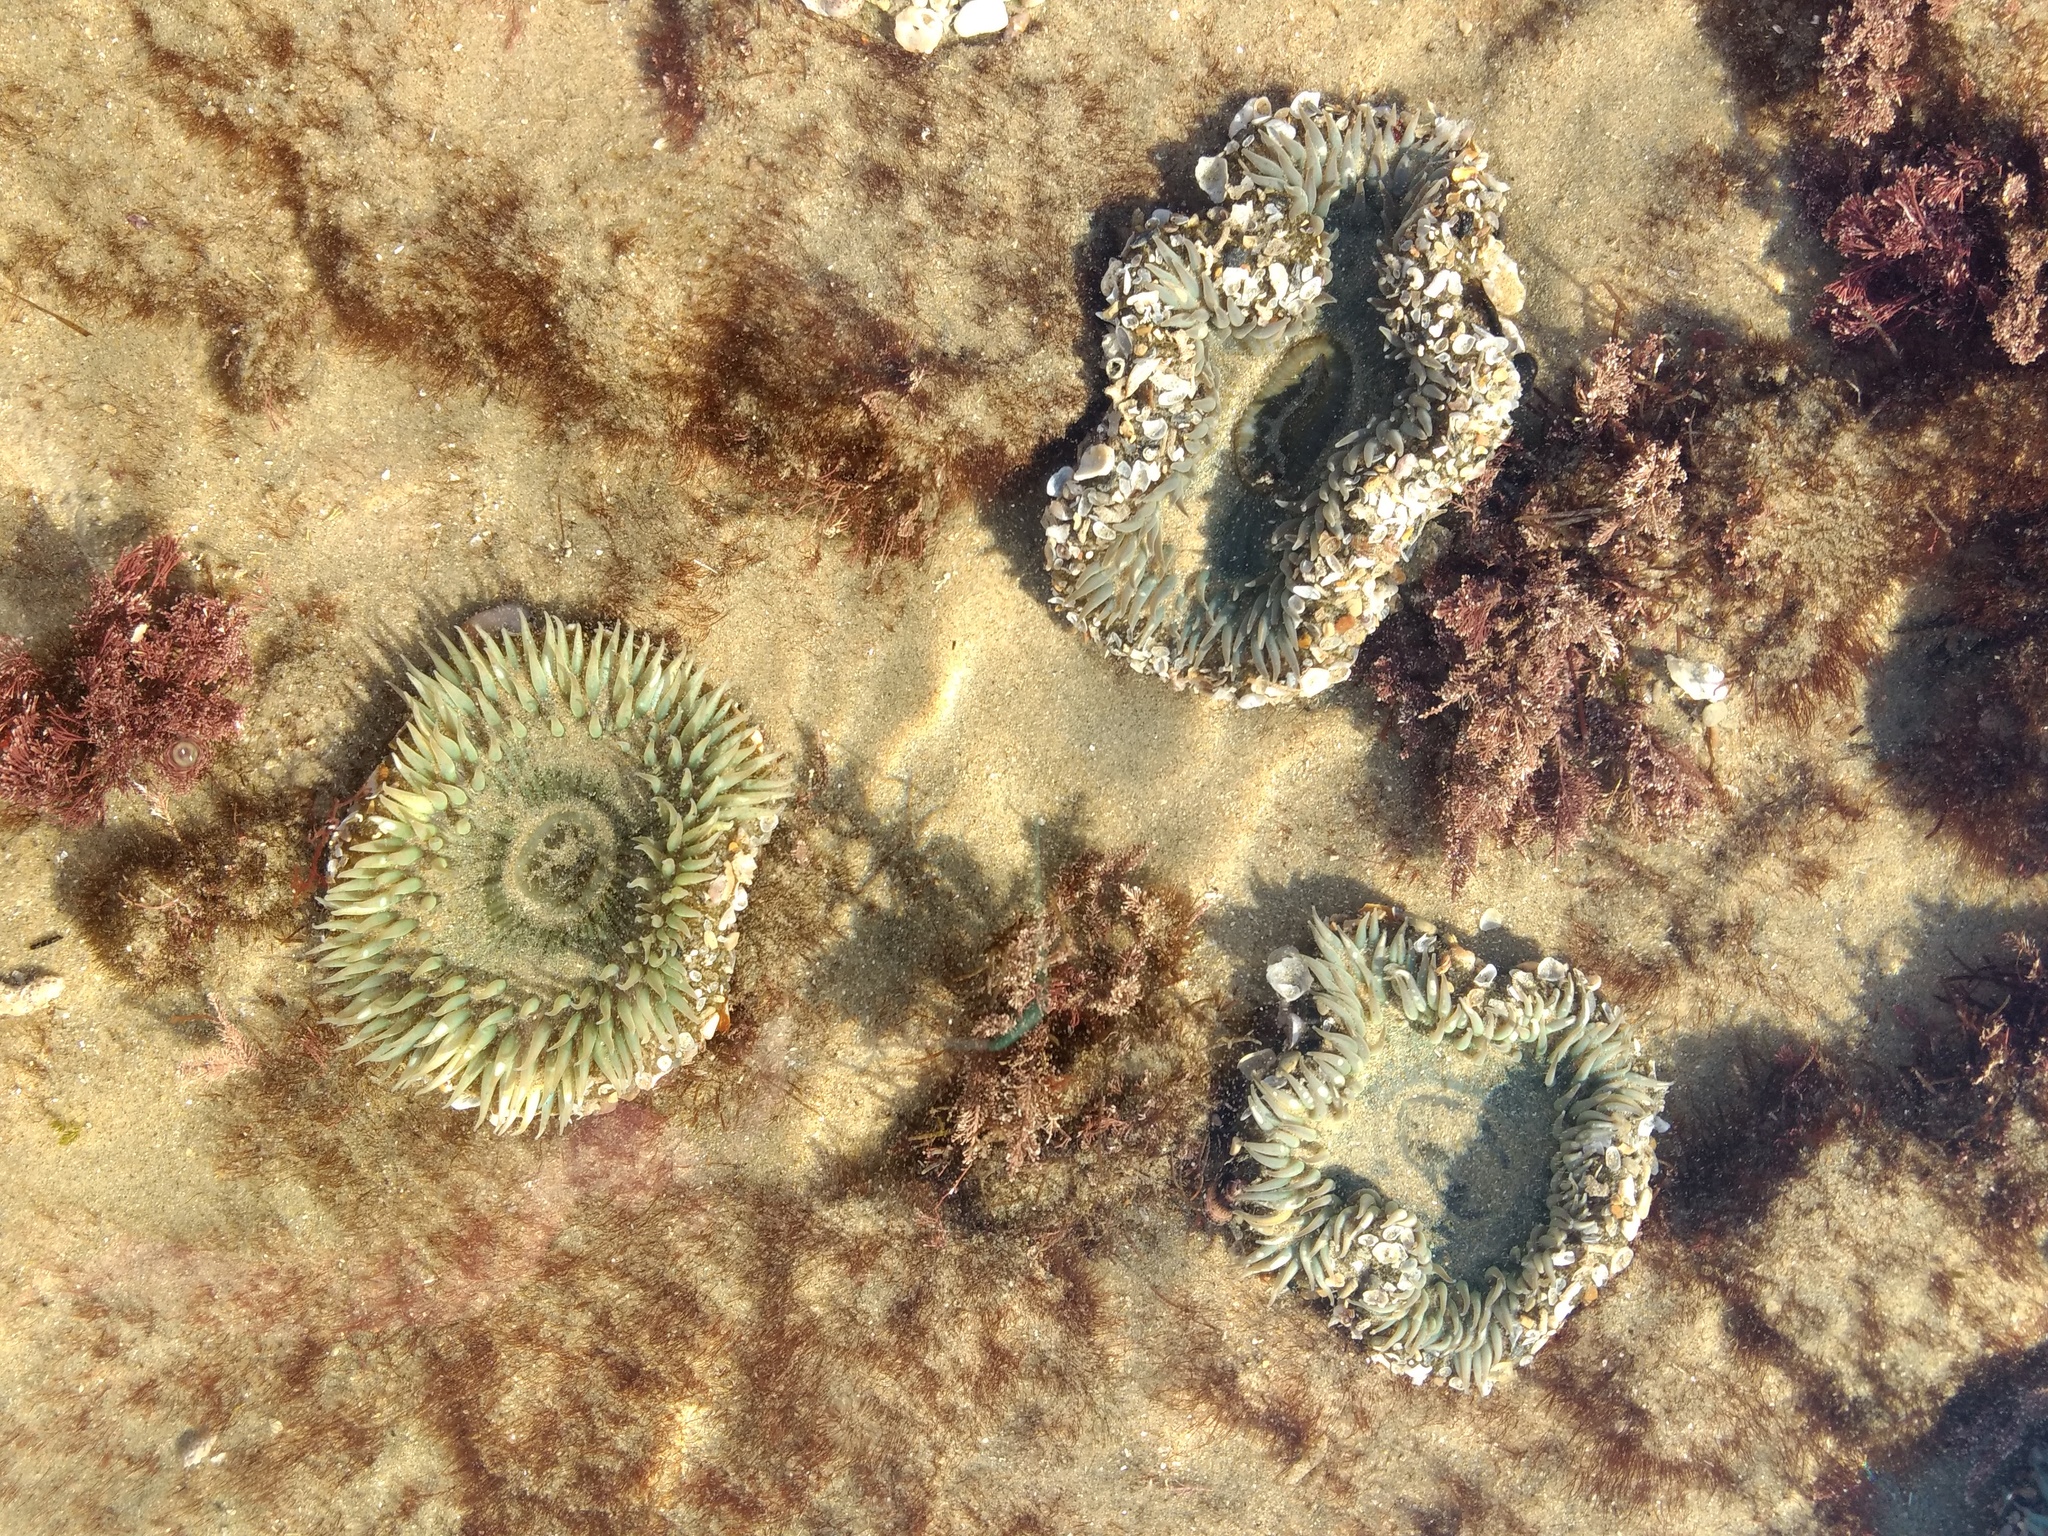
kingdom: Animalia
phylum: Cnidaria
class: Anthozoa
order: Actiniaria
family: Actiniidae
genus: Anthopleura
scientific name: Anthopleura sola
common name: Sun anemone
